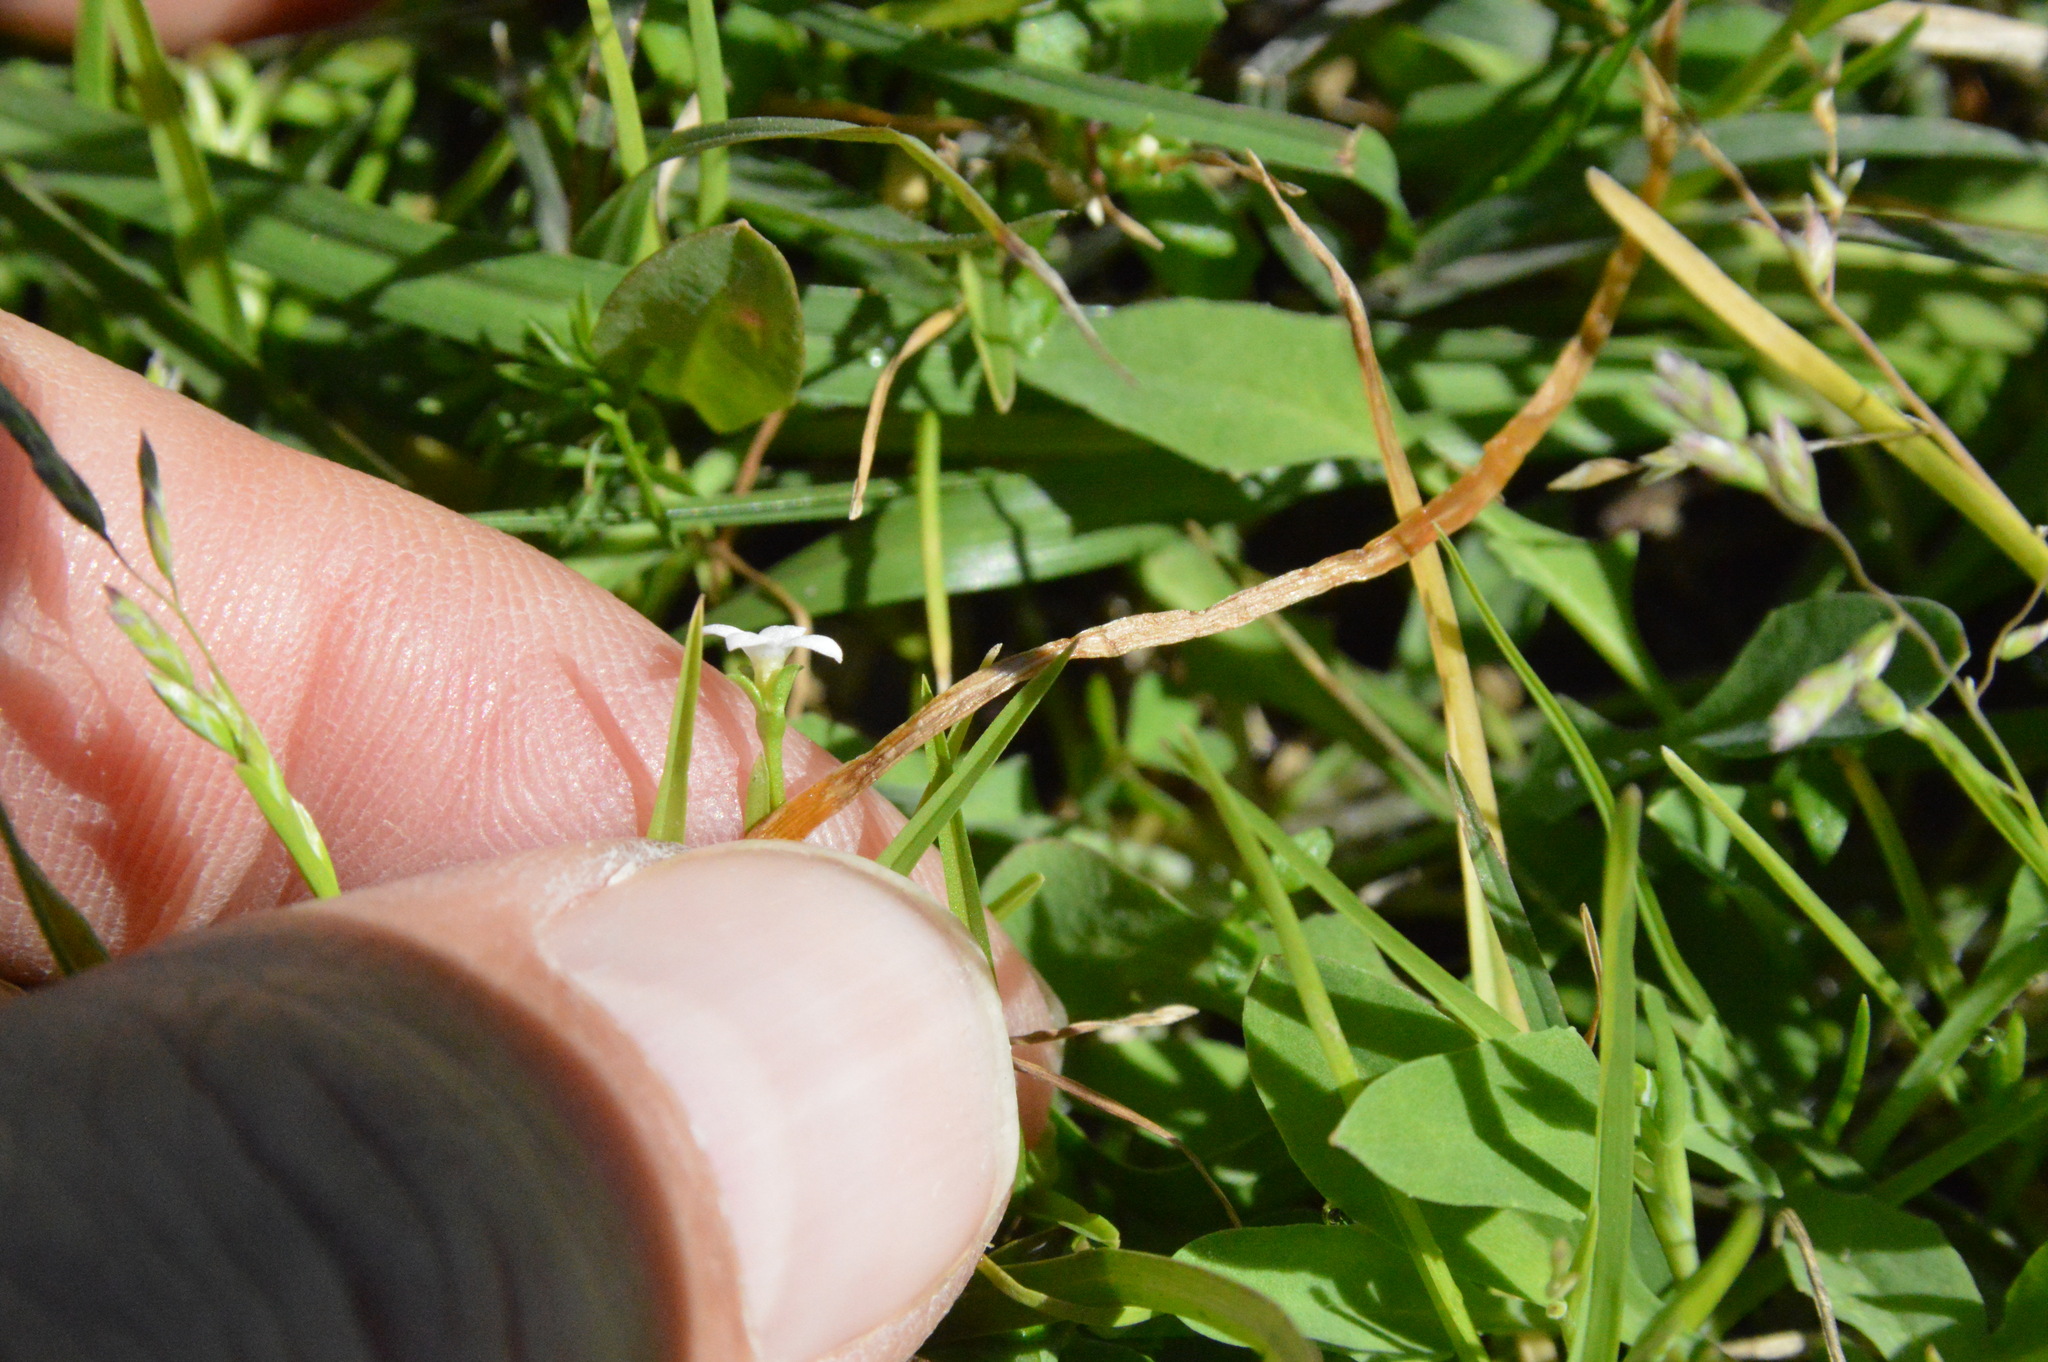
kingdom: Plantae
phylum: Tracheophyta
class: Magnoliopsida
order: Gentianales
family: Rubiaceae
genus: Houstonia
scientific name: Houstonia micrantha
